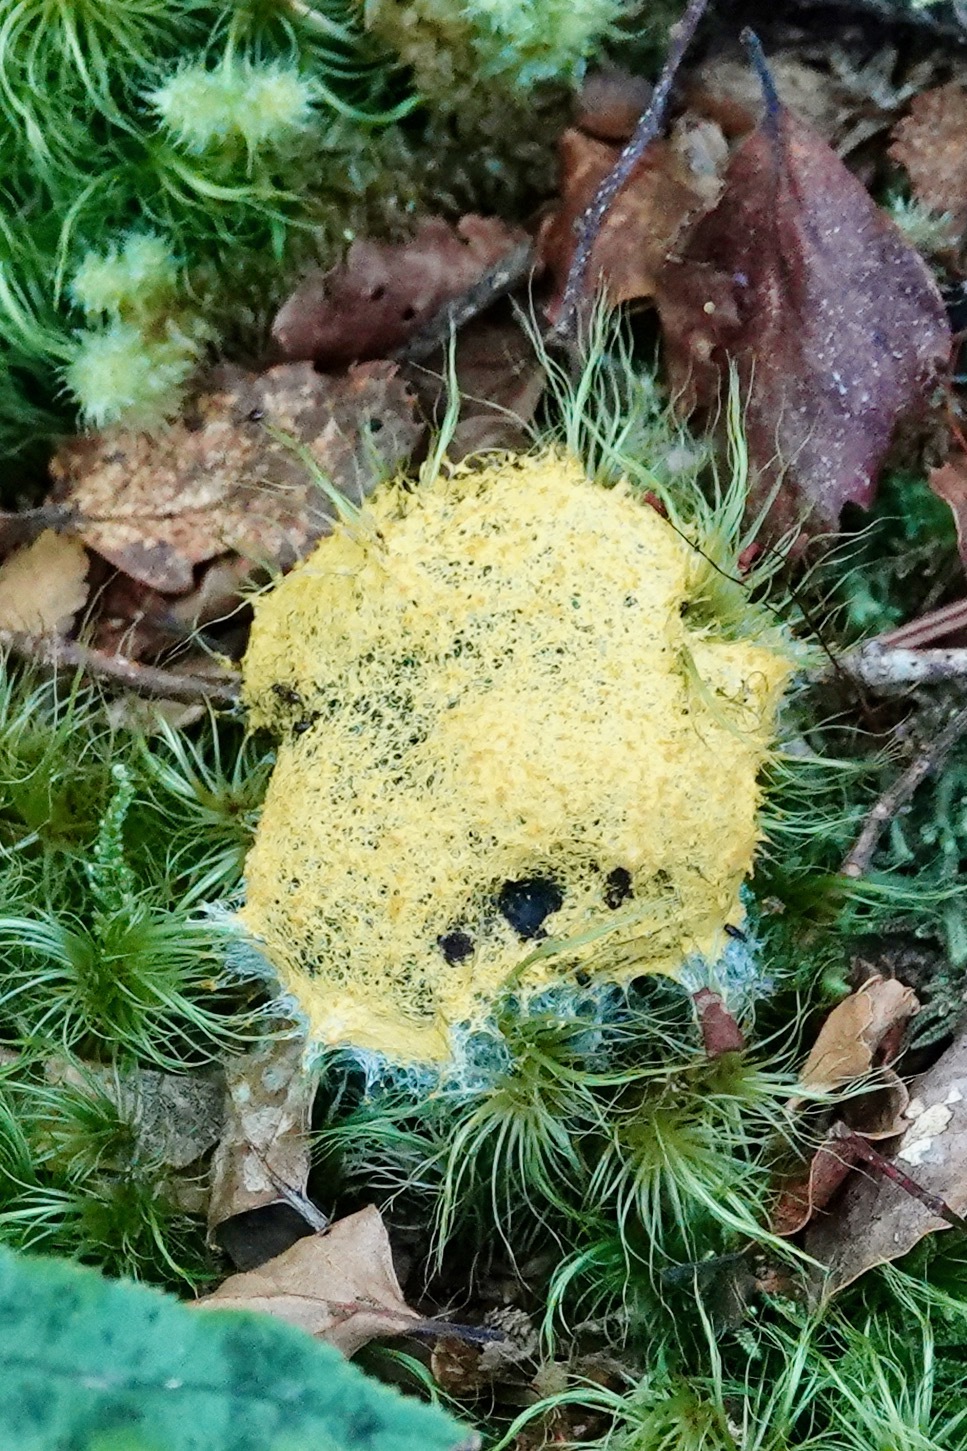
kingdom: Protozoa
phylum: Mycetozoa
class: Myxomycetes
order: Physarales
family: Physaraceae
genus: Fuligo
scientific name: Fuligo septica
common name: Dog vomit slime mold
